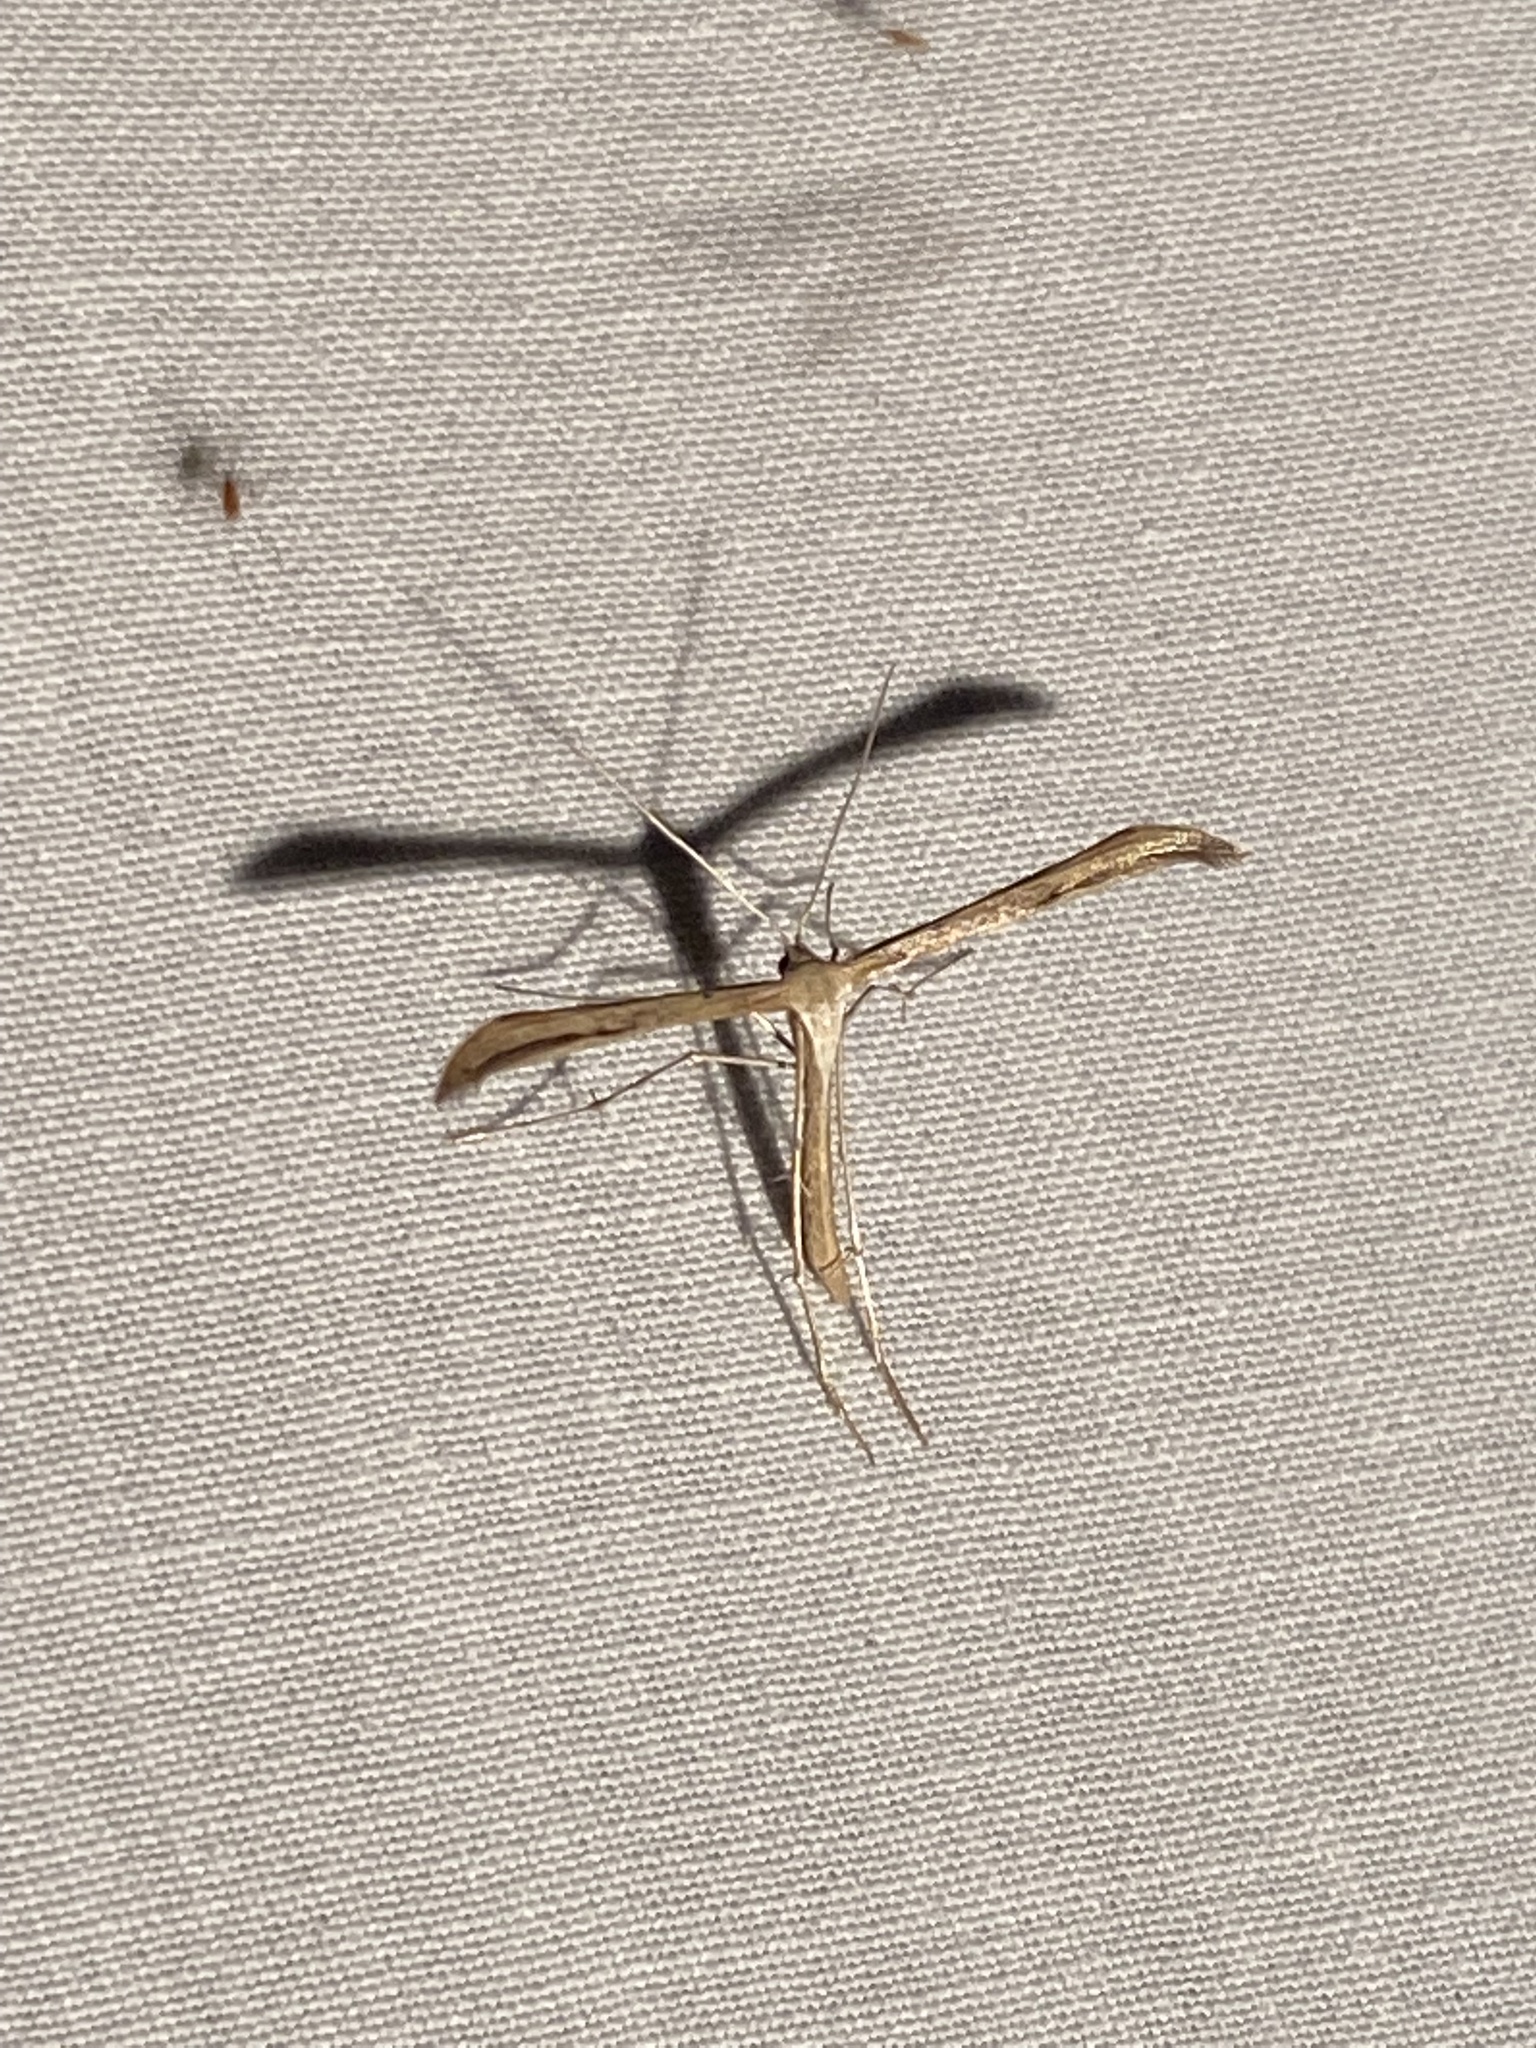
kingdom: Animalia
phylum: Arthropoda
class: Insecta
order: Lepidoptera
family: Pterophoridae
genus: Emmelina
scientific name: Emmelina monodactyla
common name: Common plume
